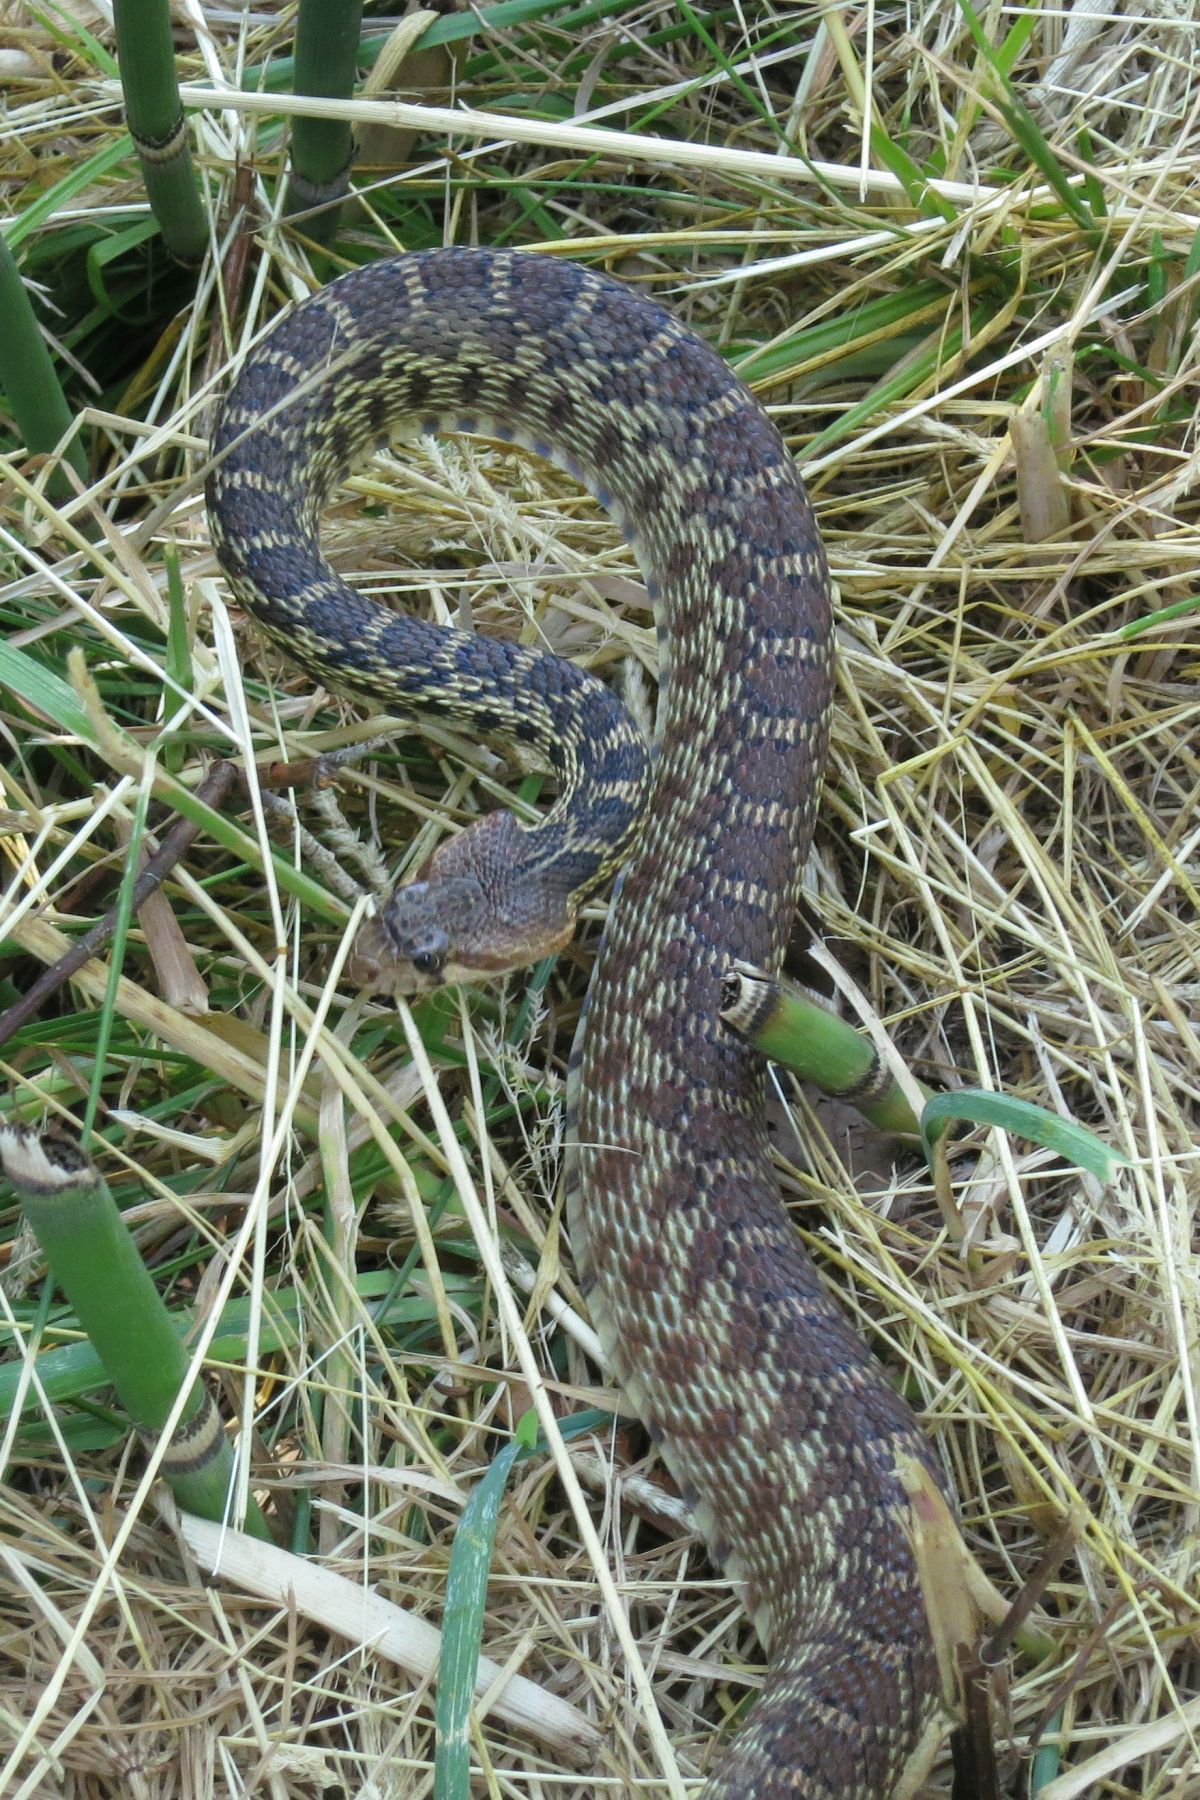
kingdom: Animalia
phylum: Chordata
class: Squamata
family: Colubridae
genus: Pituophis
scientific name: Pituophis catenifer
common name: Gopher snake
